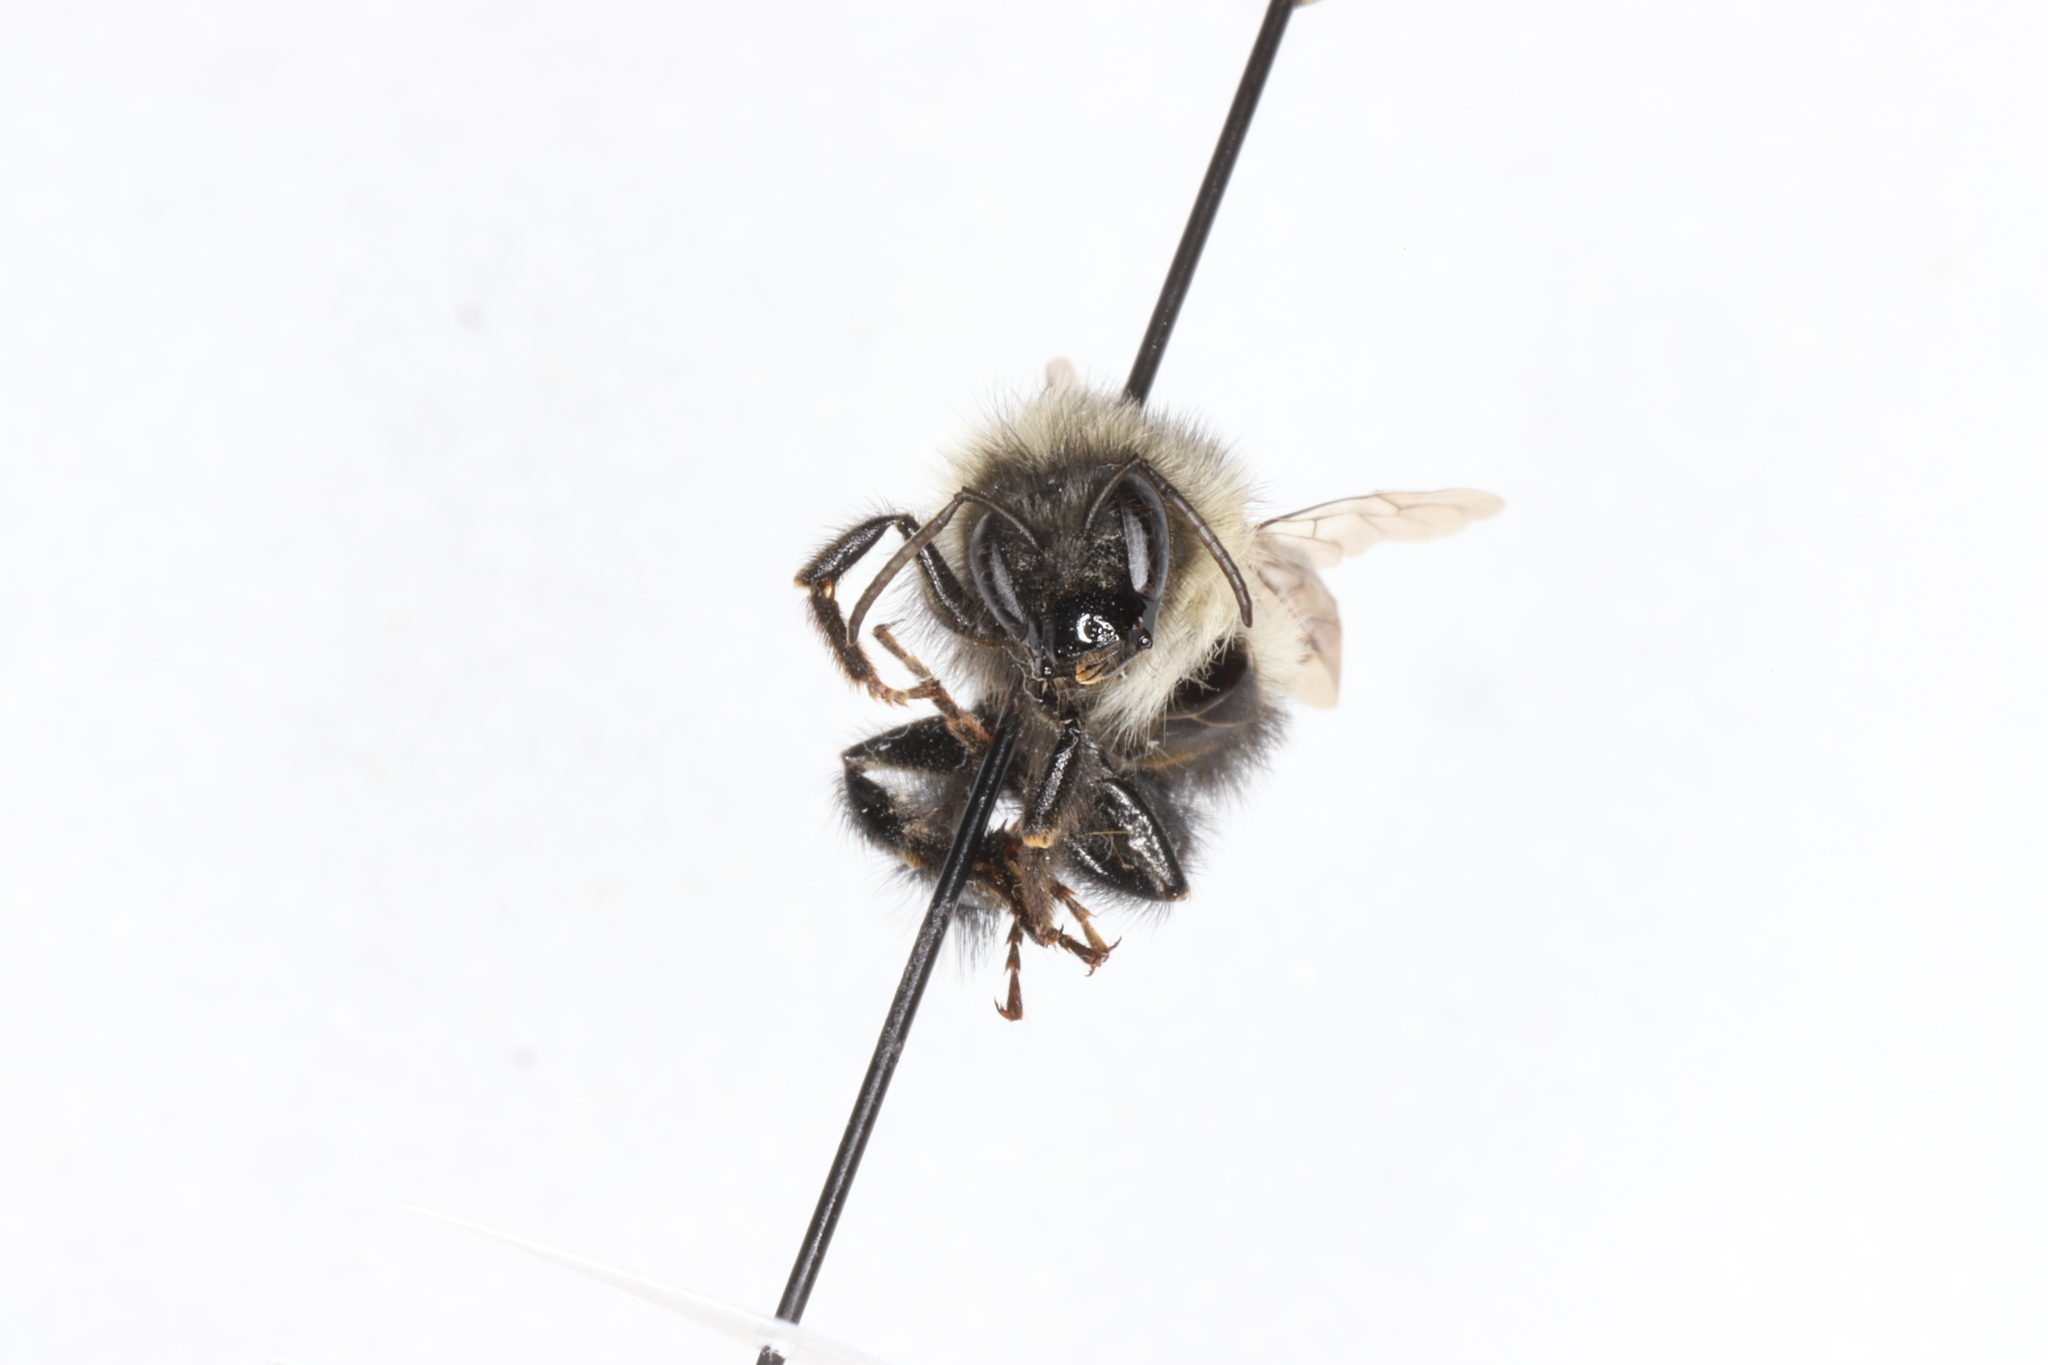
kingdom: Animalia
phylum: Arthropoda
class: Insecta
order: Hymenoptera
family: Apidae
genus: Bombus
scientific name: Bombus vagans
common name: Half-black bumble bee
